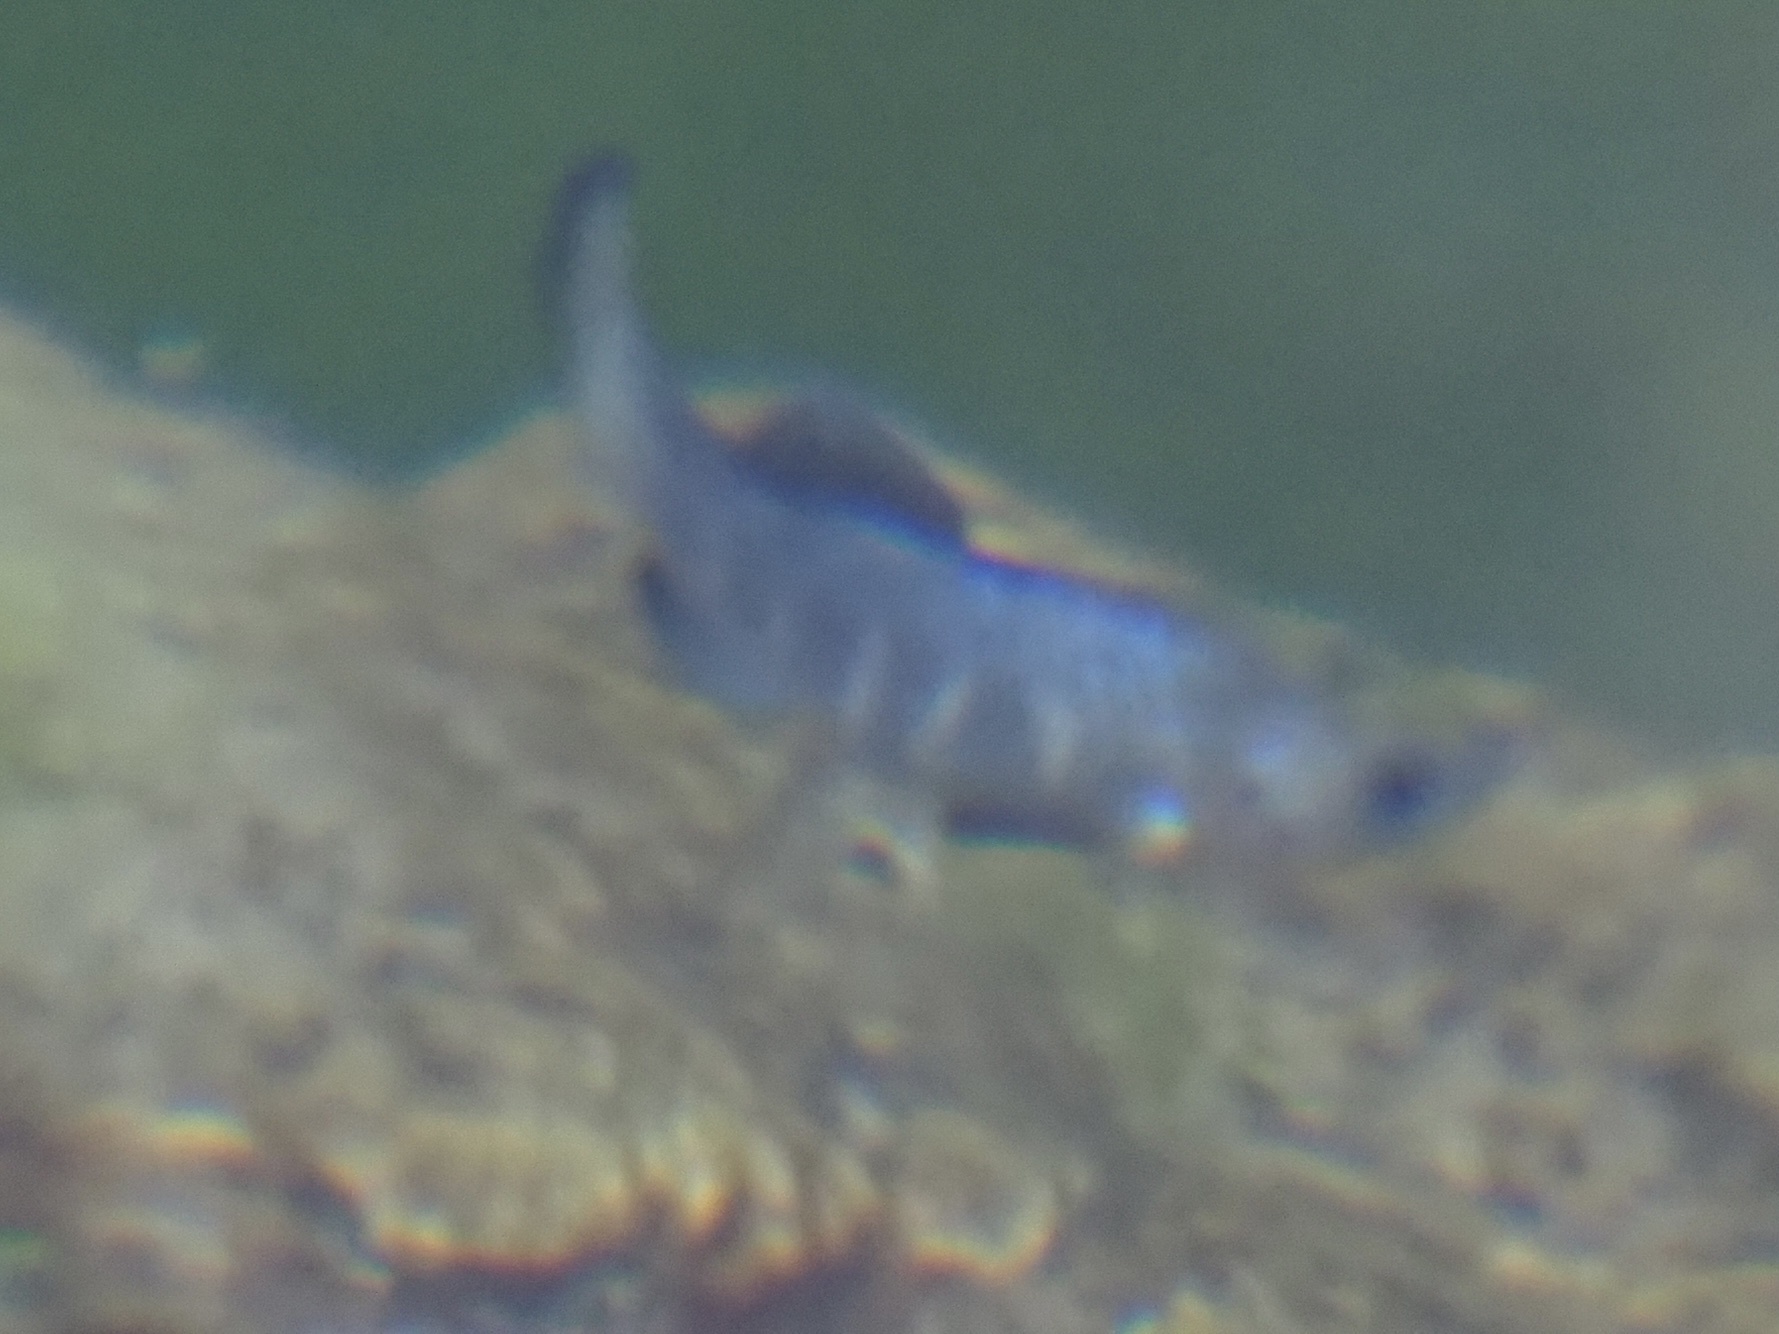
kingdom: Animalia
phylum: Chordata
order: Cyprinodontiformes
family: Cyprinodontidae
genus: Cyprinodon
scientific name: Cyprinodon nevadensis
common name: Amargosa pupfish
